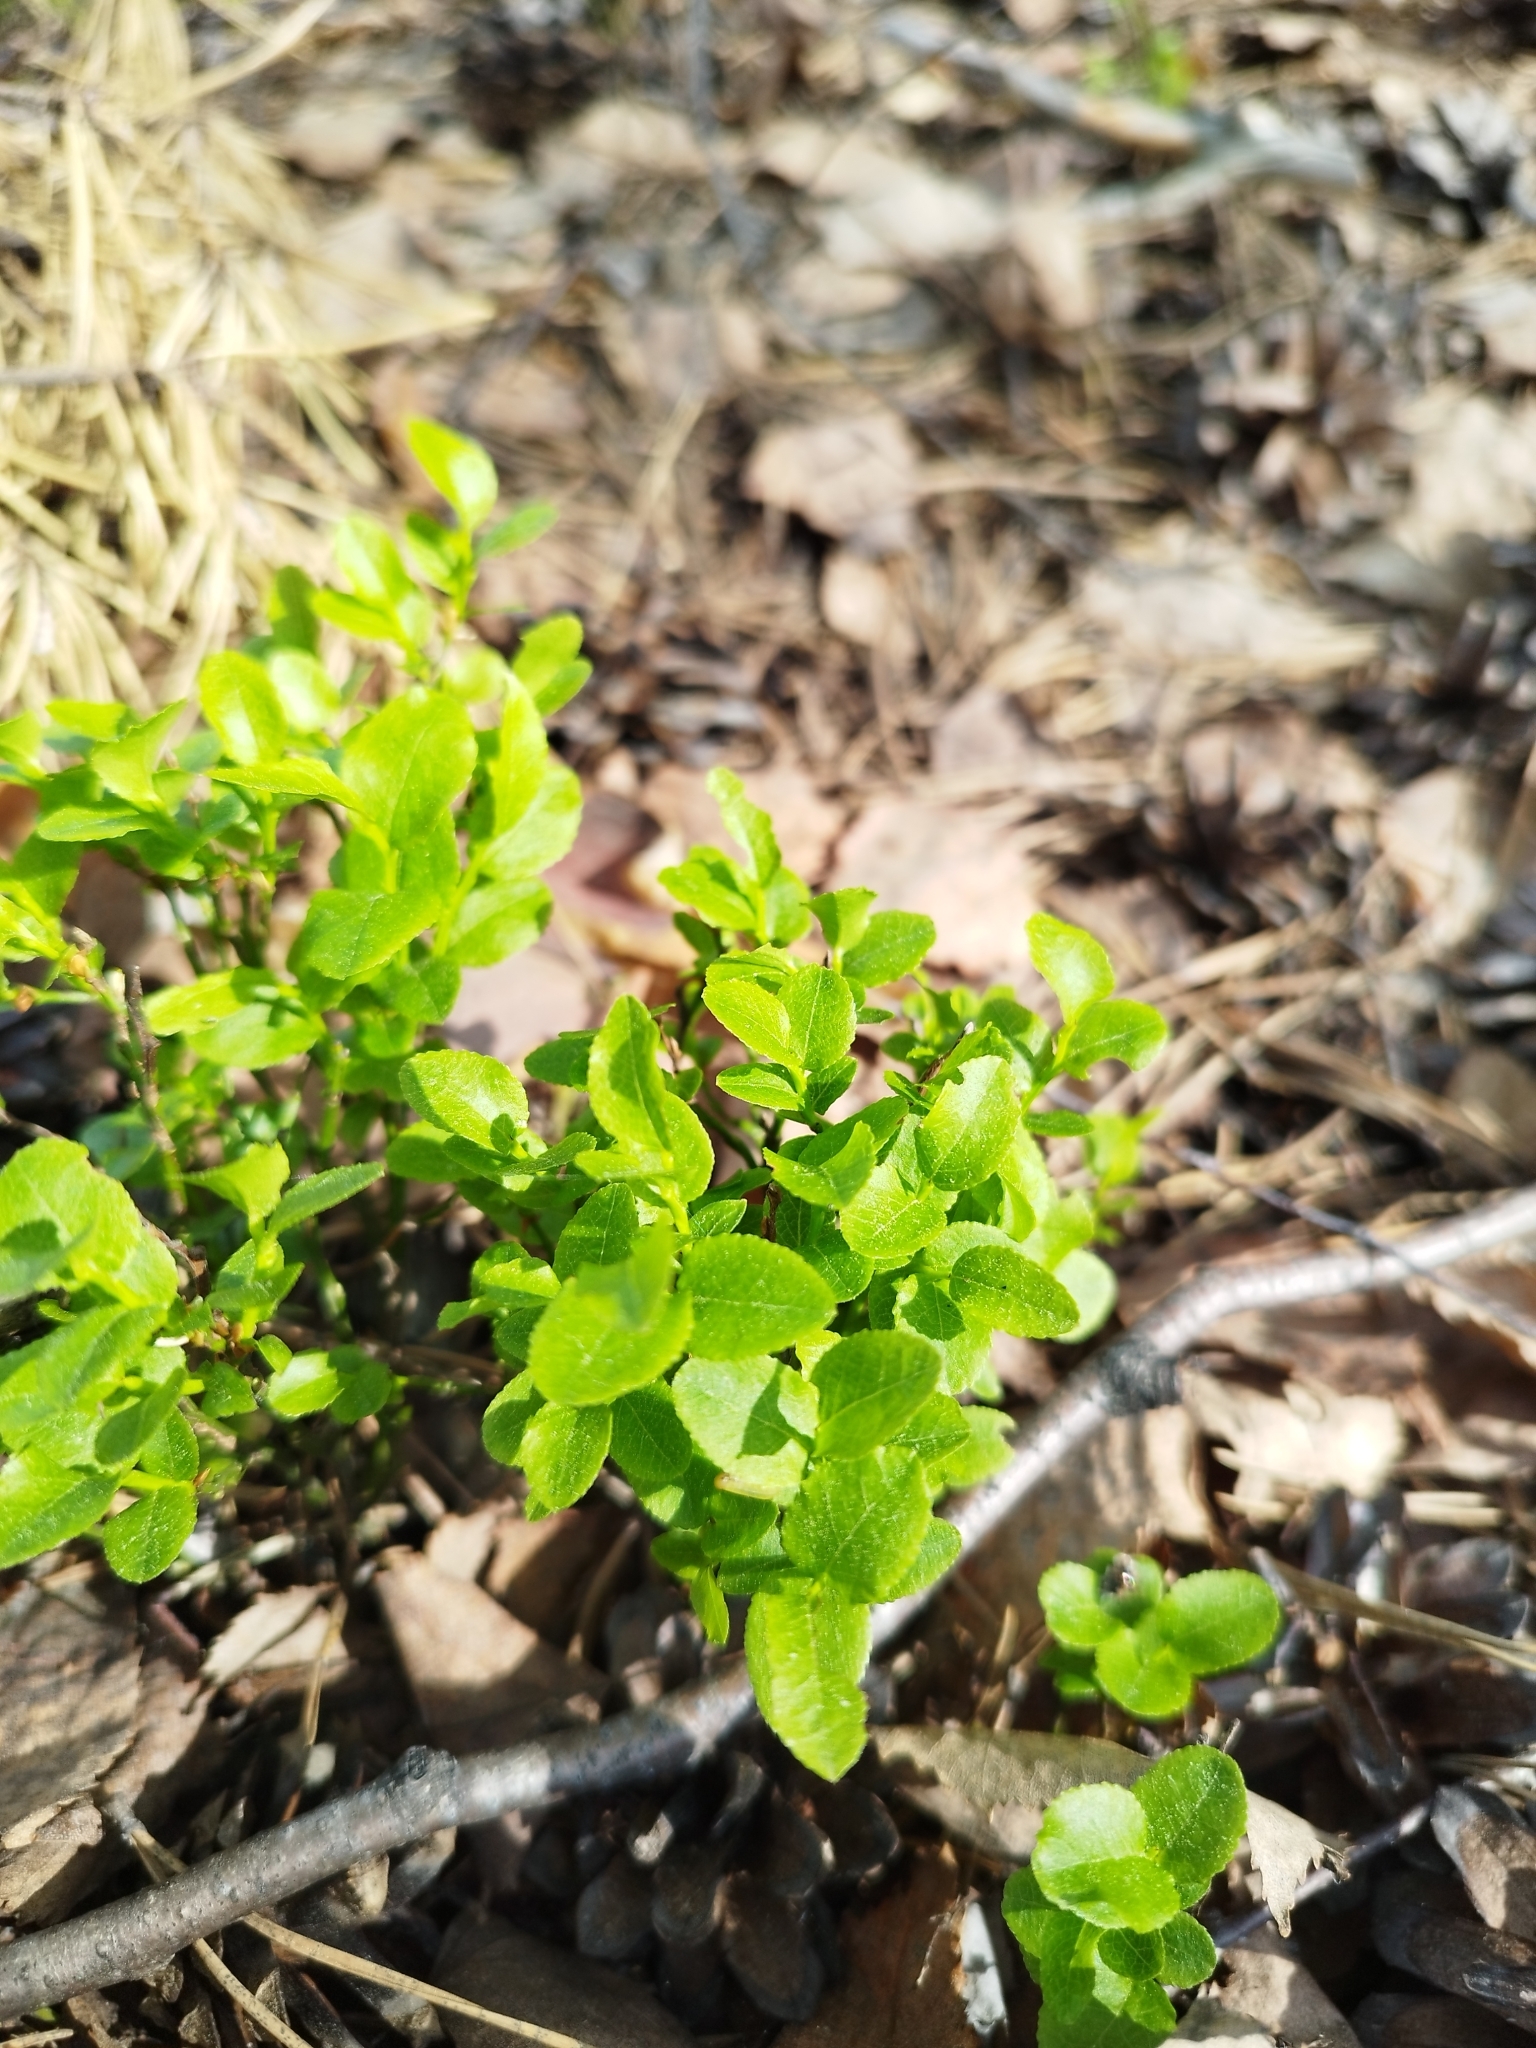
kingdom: Plantae
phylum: Tracheophyta
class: Magnoliopsida
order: Ericales
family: Ericaceae
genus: Vaccinium
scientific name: Vaccinium myrtillus
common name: Bilberry
